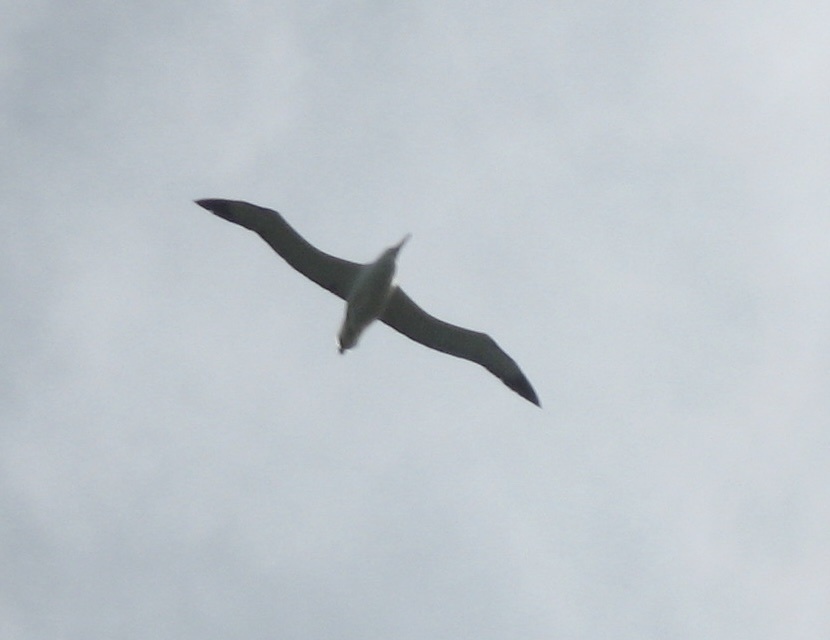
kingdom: Animalia
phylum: Chordata
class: Aves
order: Procellariiformes
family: Diomedeidae
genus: Diomedea
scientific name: Diomedea sanfordi
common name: Northern royal albatross
